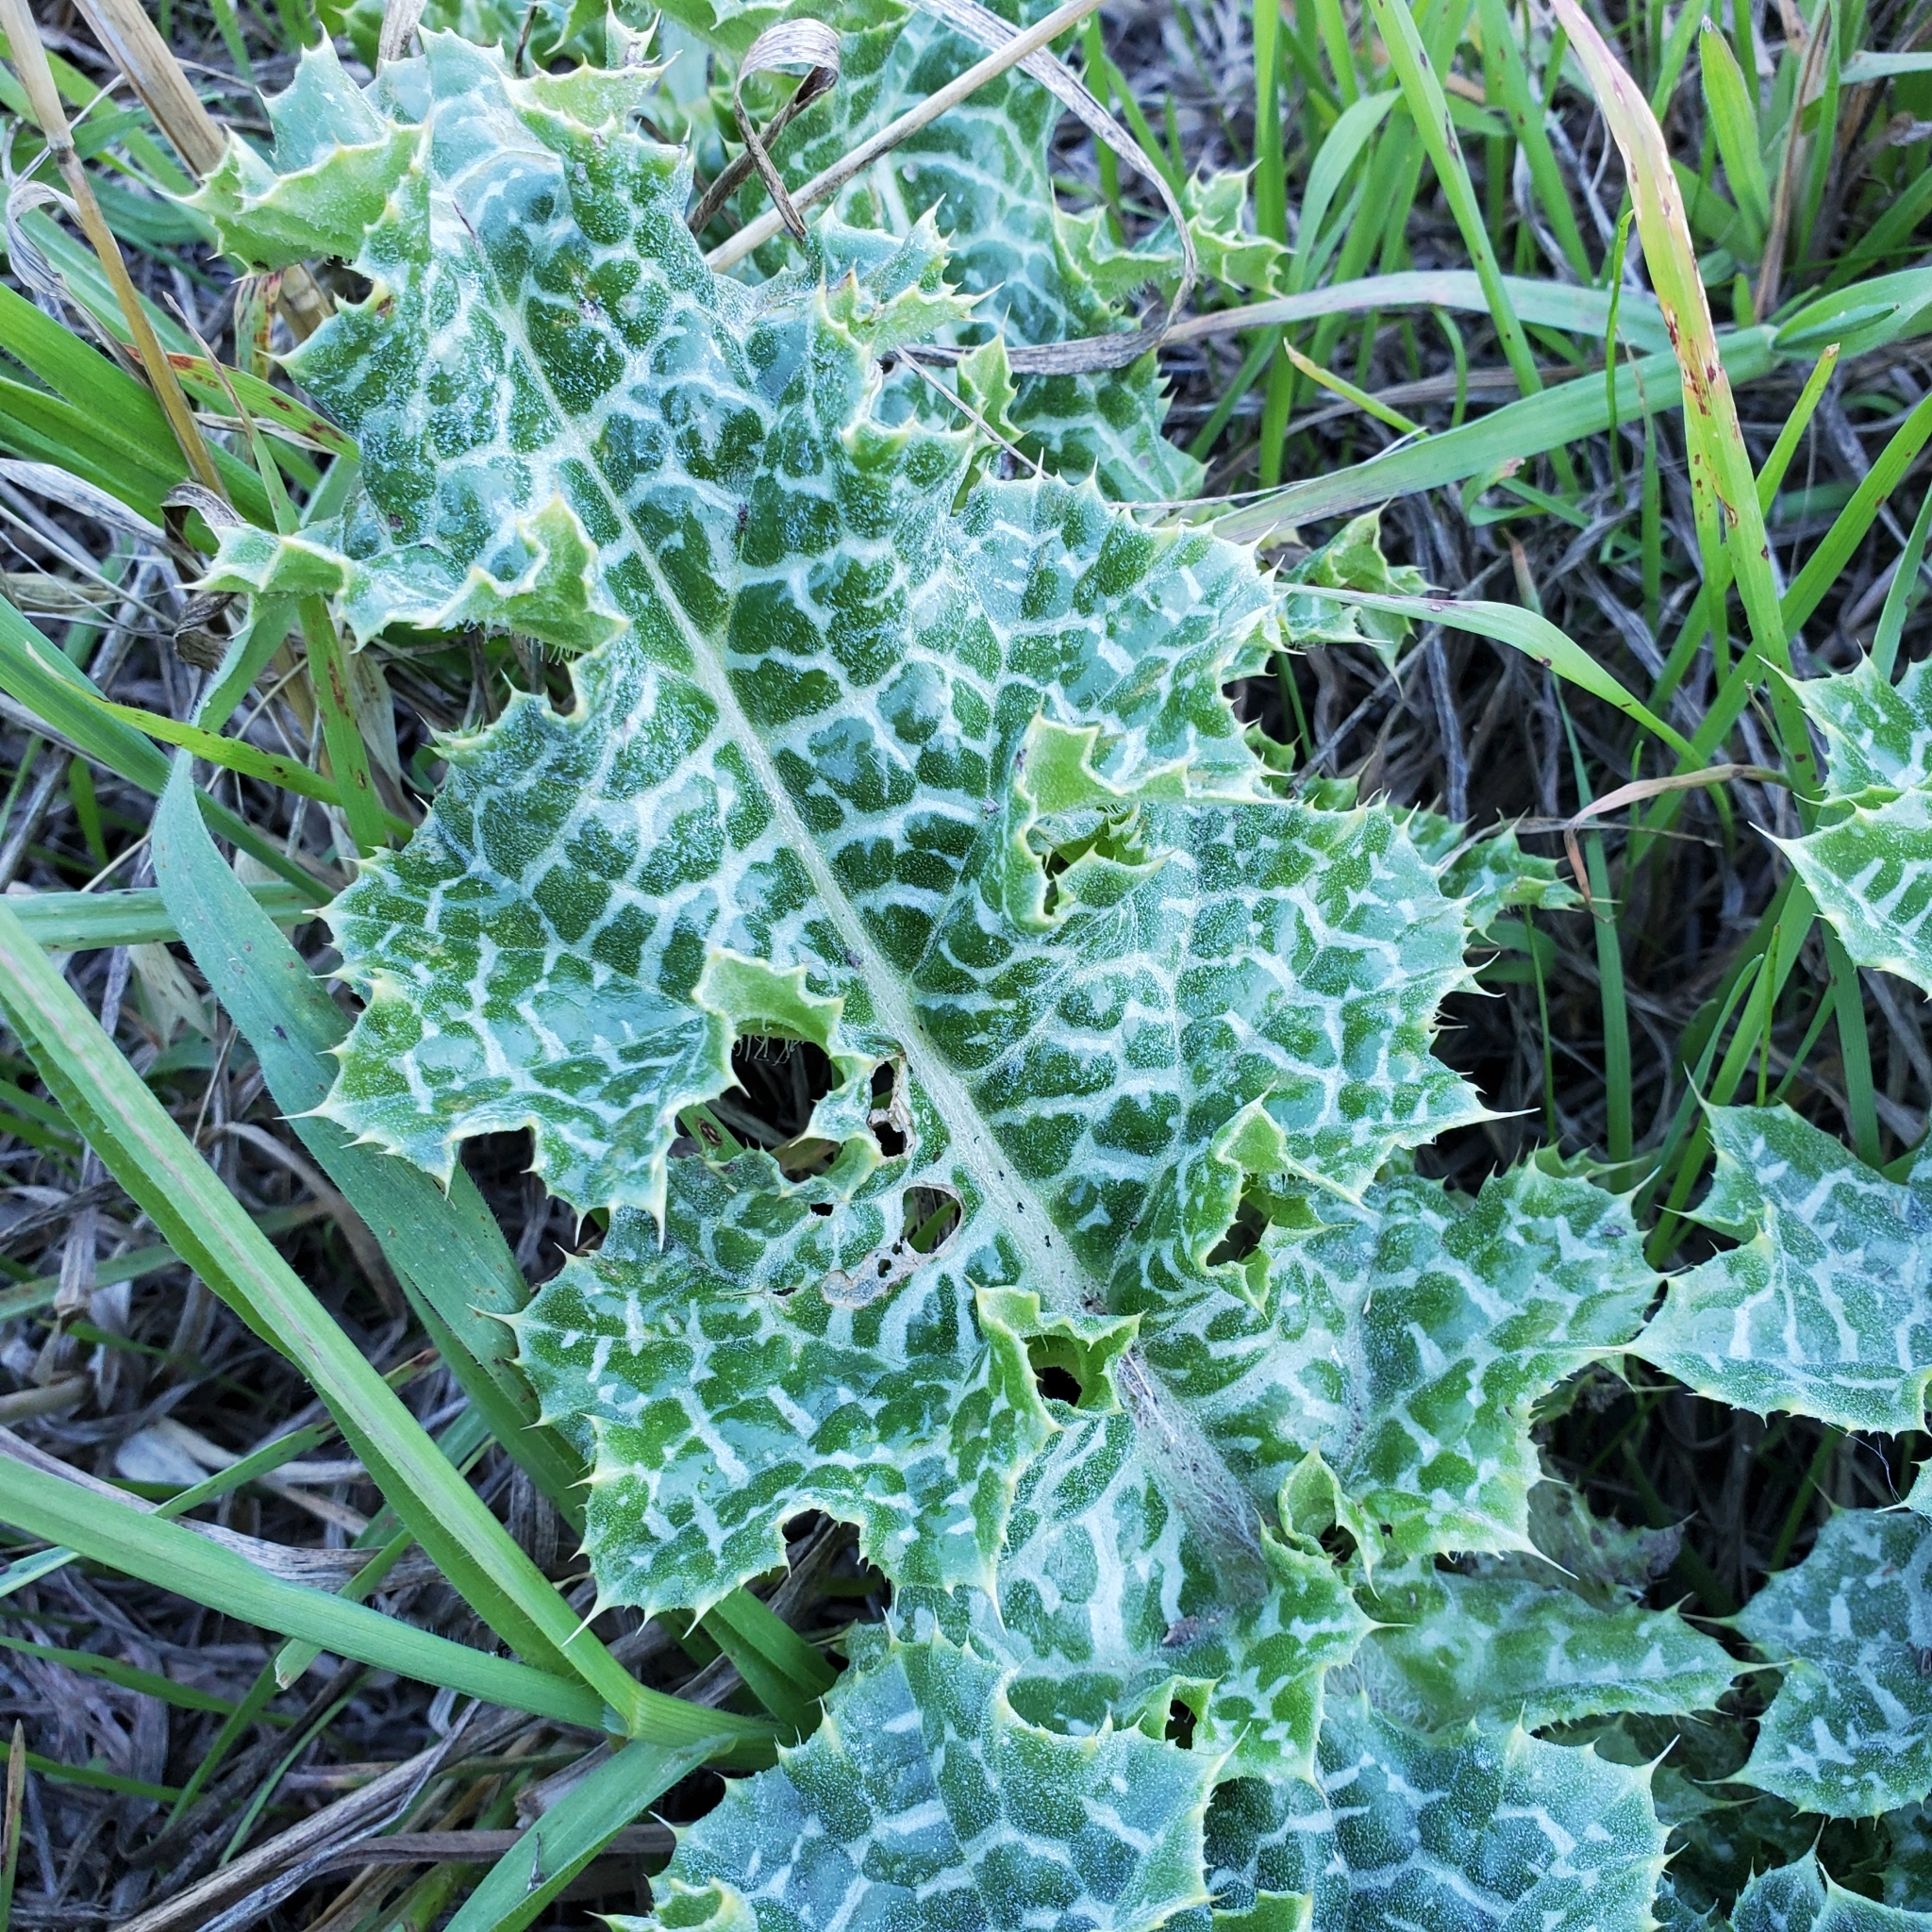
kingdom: Plantae
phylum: Tracheophyta
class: Magnoliopsida
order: Asterales
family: Asteraceae
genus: Silybum
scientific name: Silybum marianum
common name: Milk thistle
